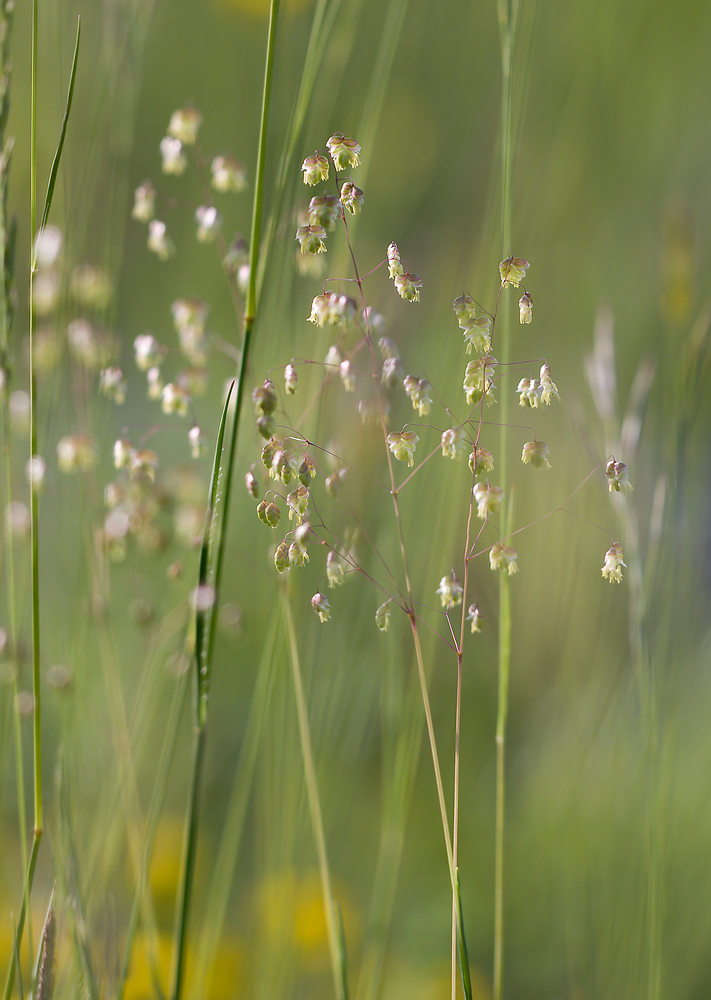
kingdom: Plantae
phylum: Tracheophyta
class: Liliopsida
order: Poales
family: Poaceae
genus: Briza
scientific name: Briza media
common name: Quaking grass
